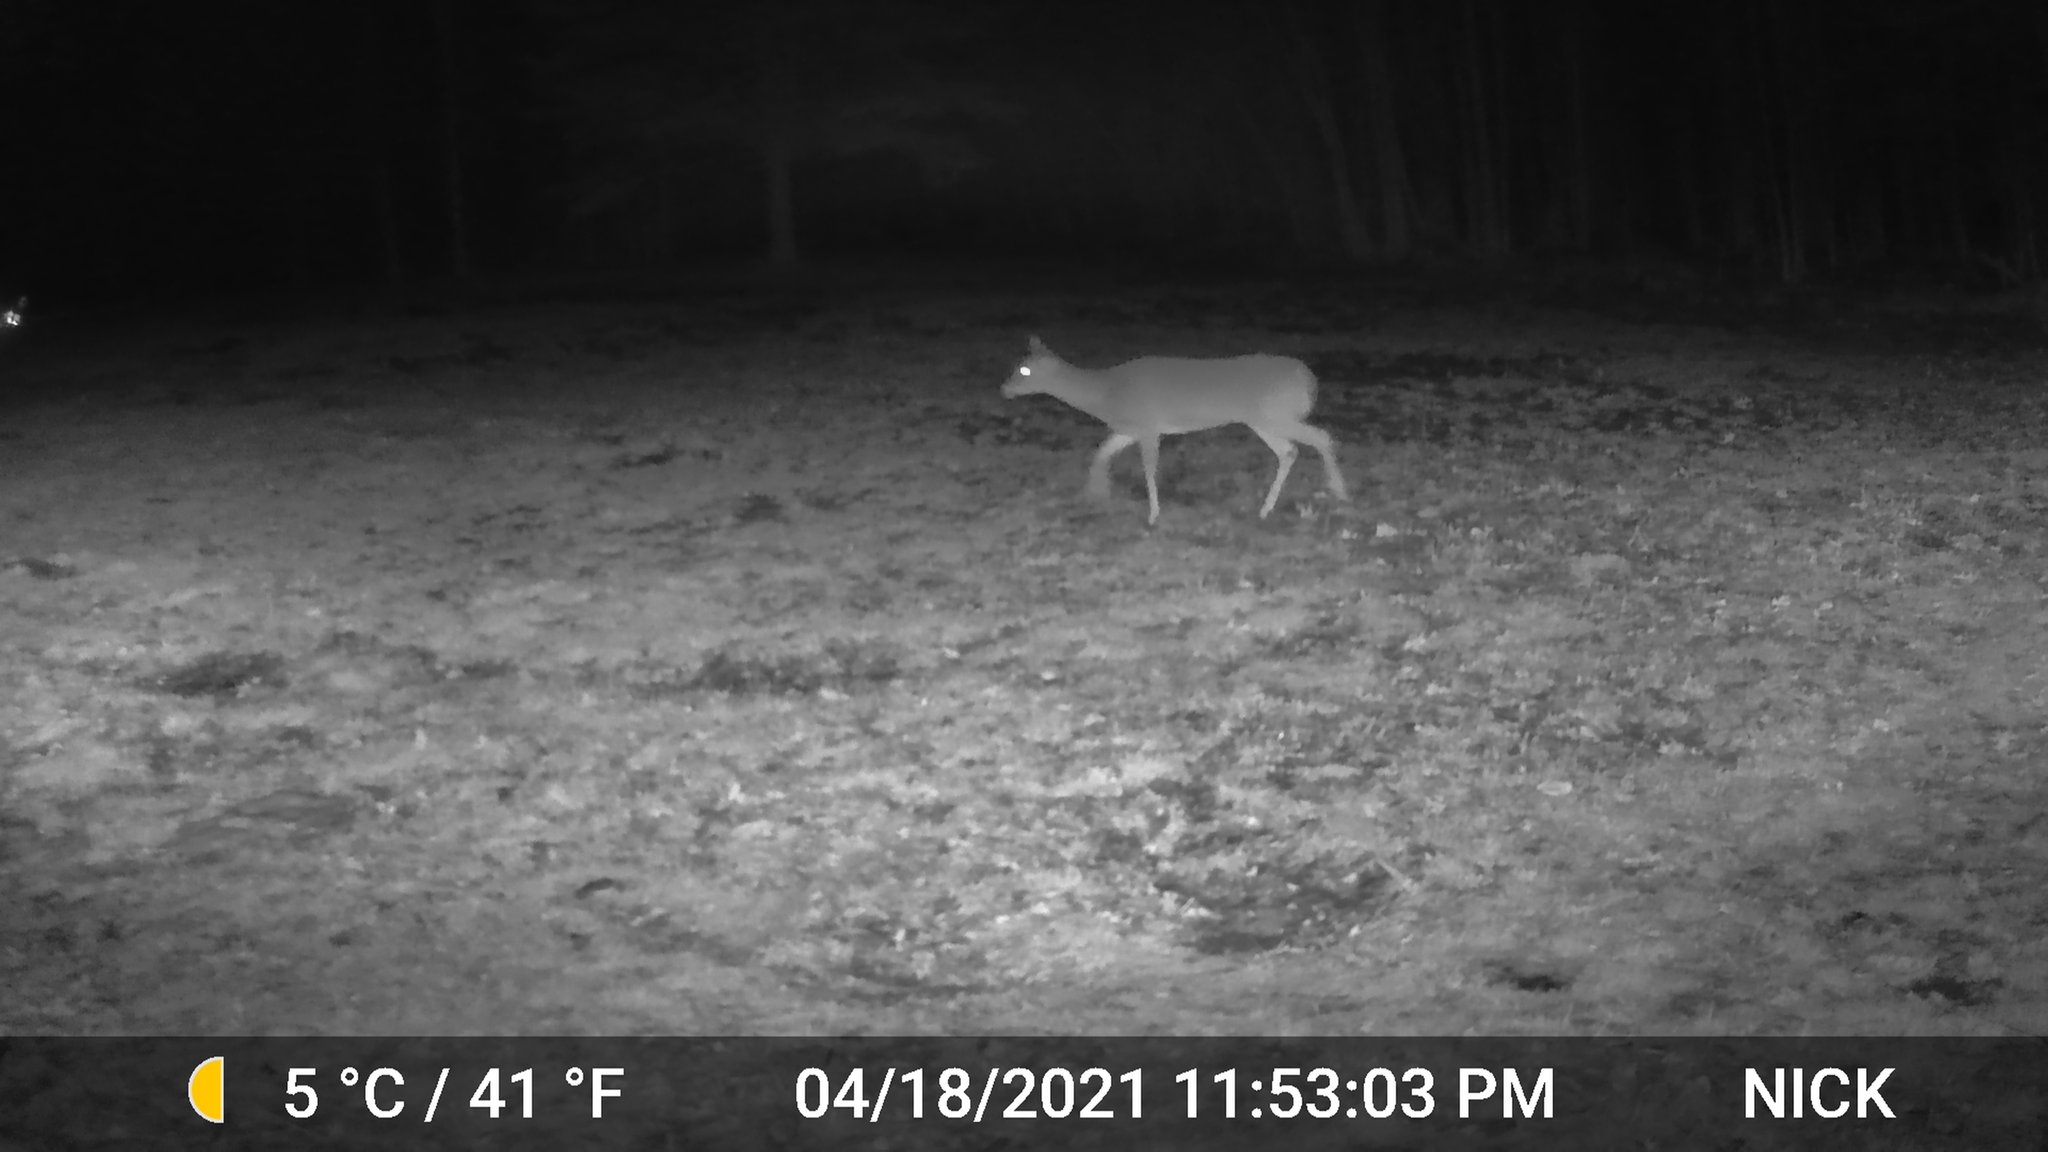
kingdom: Animalia
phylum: Chordata
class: Mammalia
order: Artiodactyla
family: Cervidae
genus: Odocoileus
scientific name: Odocoileus virginianus
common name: White-tailed deer
